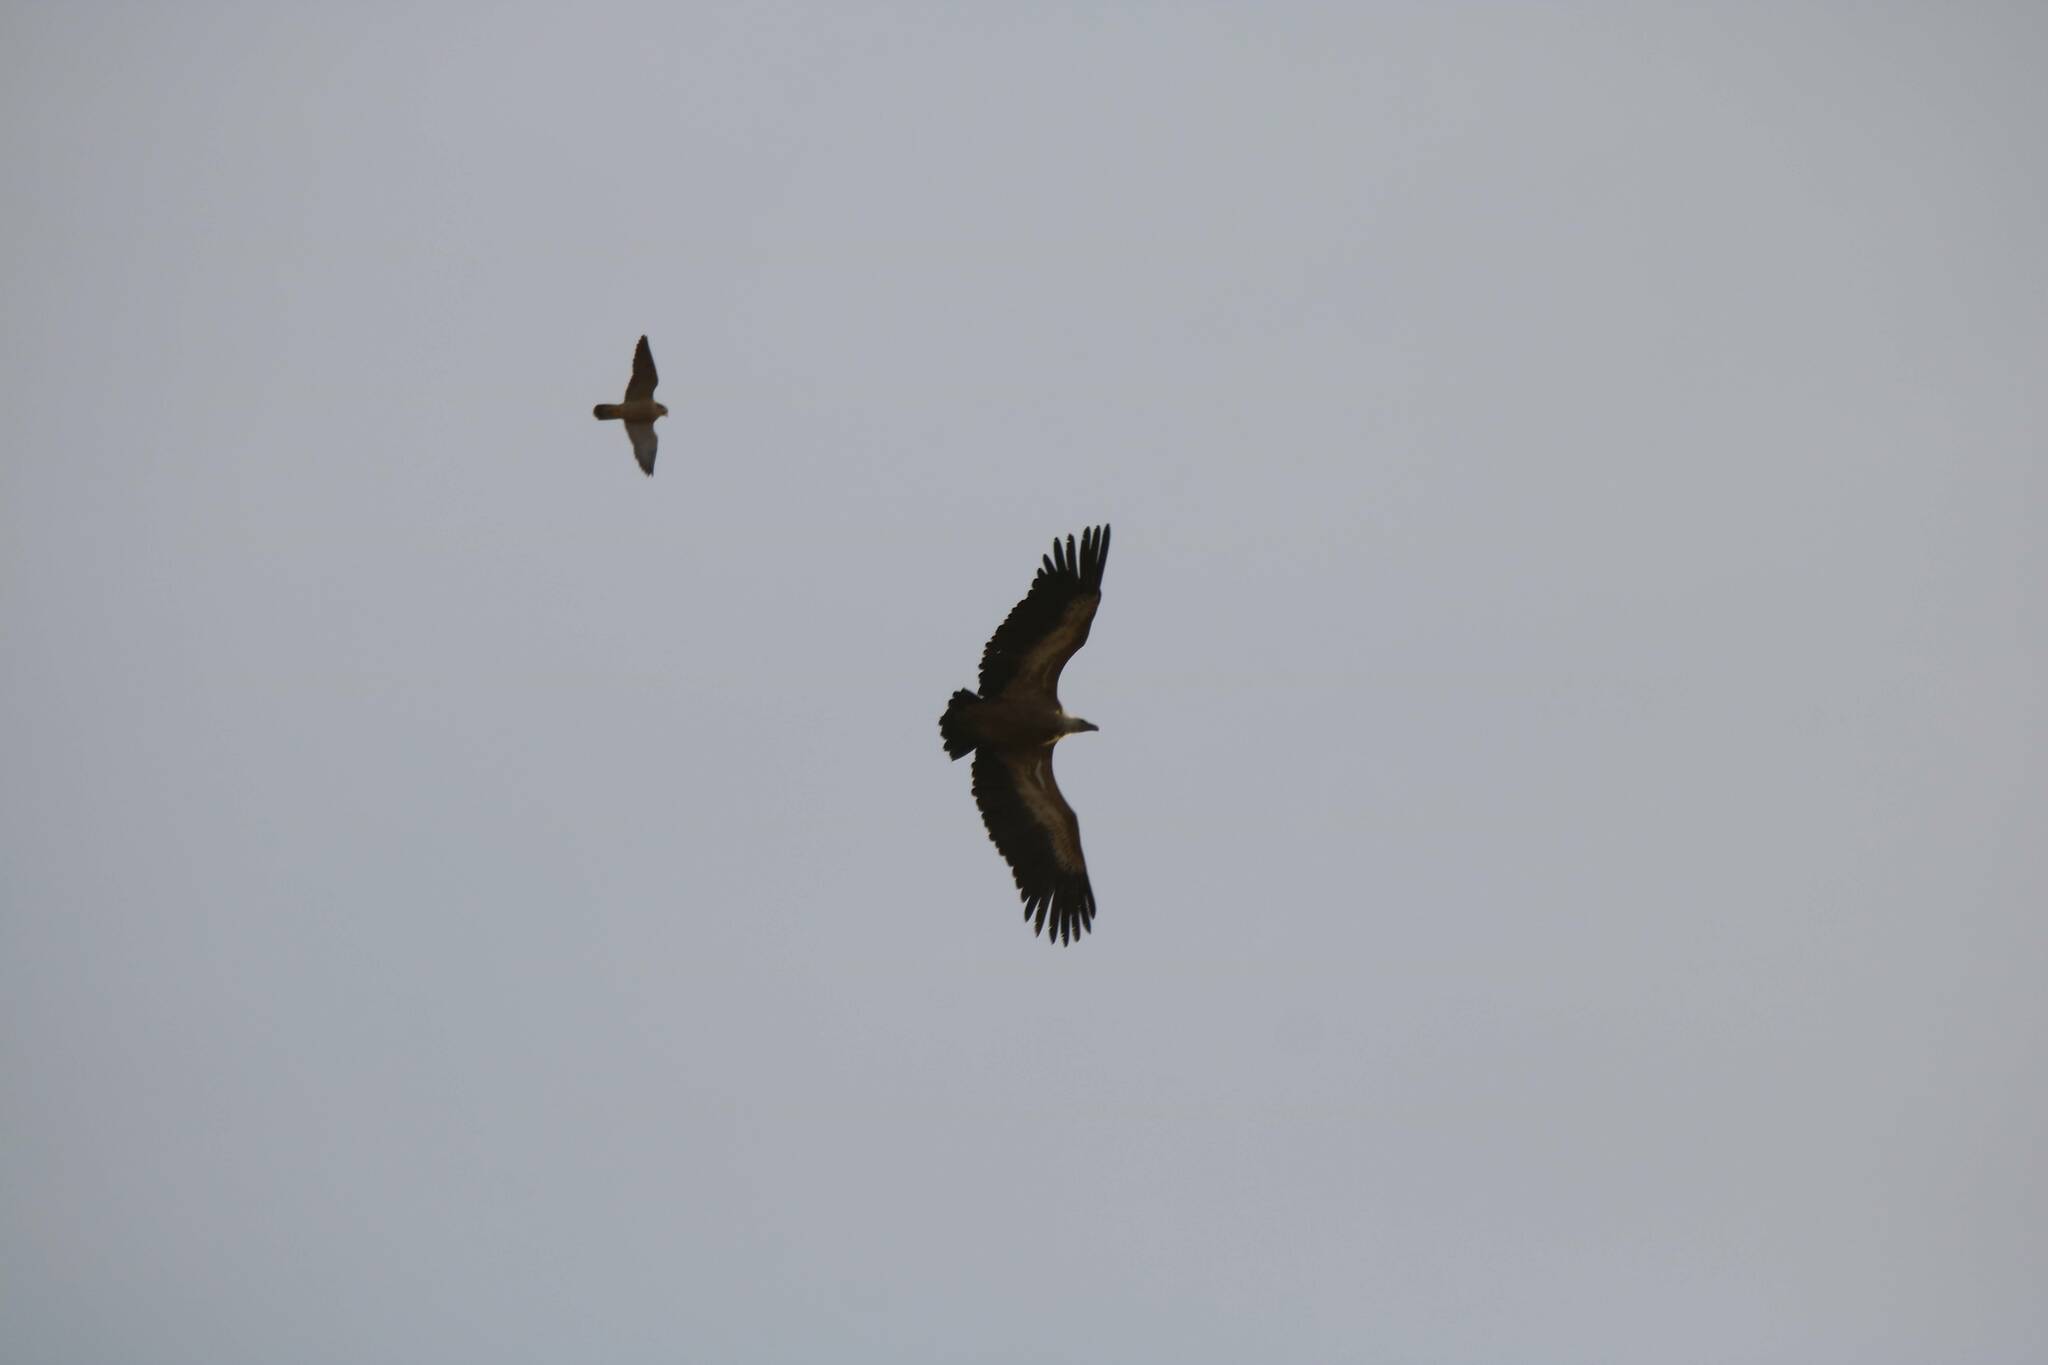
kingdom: Animalia
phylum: Chordata
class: Aves
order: Falconiformes
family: Falconidae
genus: Falco
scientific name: Falco peregrinus
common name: Peregrine falcon
